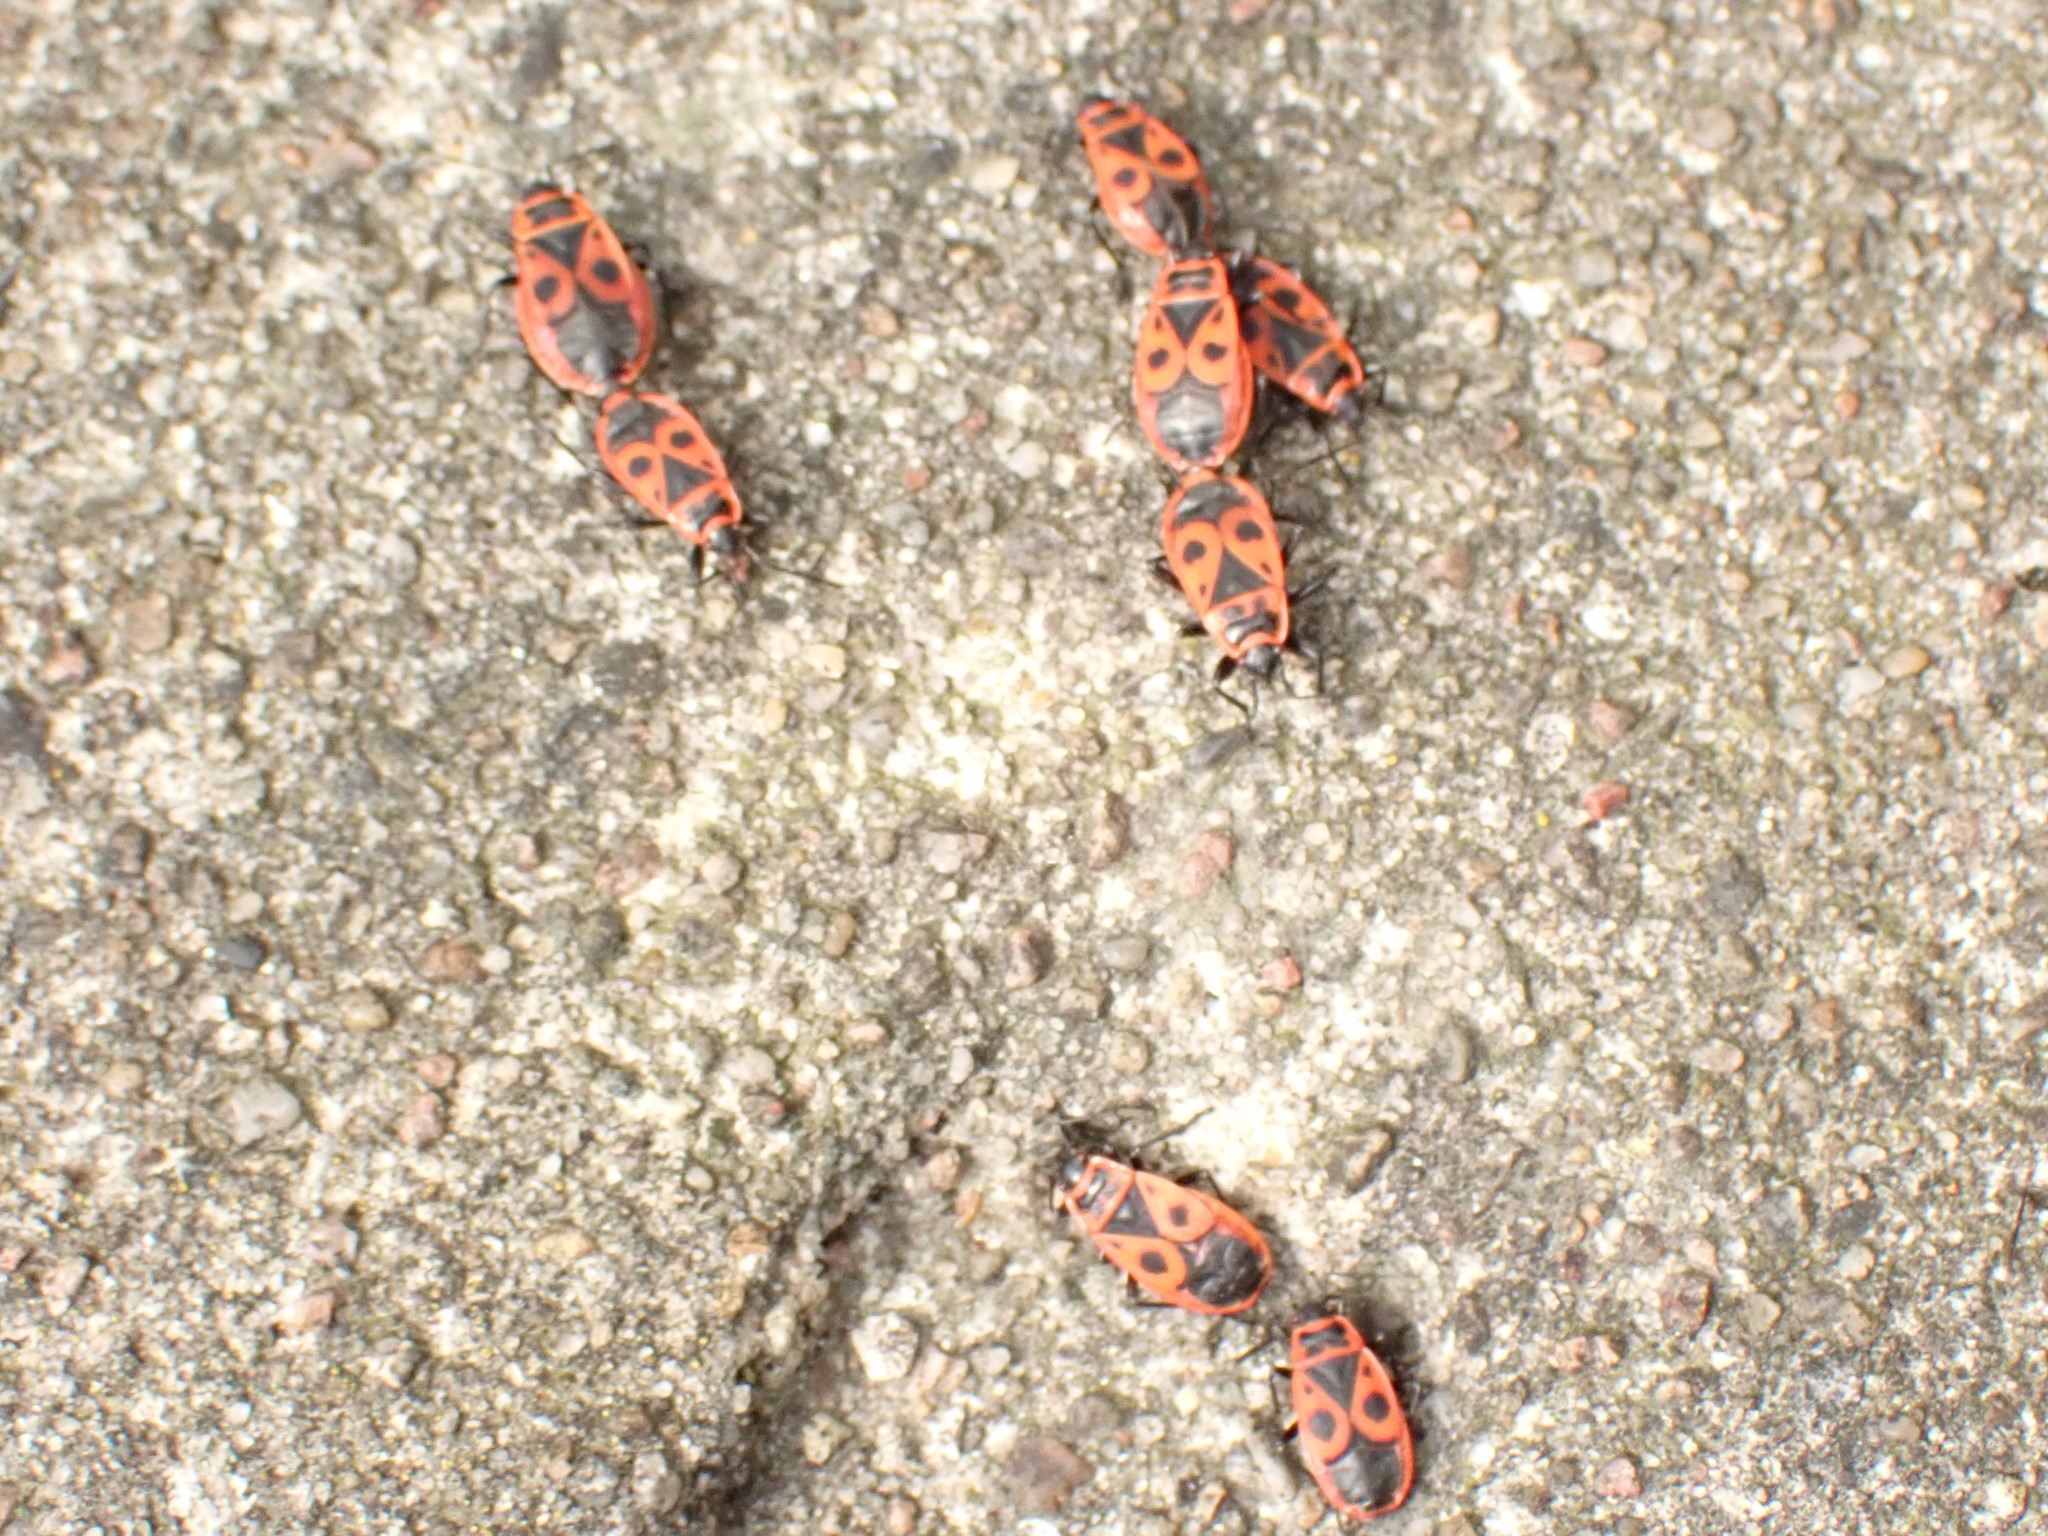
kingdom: Animalia
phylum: Arthropoda
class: Insecta
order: Hemiptera
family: Pyrrhocoridae
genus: Pyrrhocoris
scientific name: Pyrrhocoris apterus
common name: Firebug
